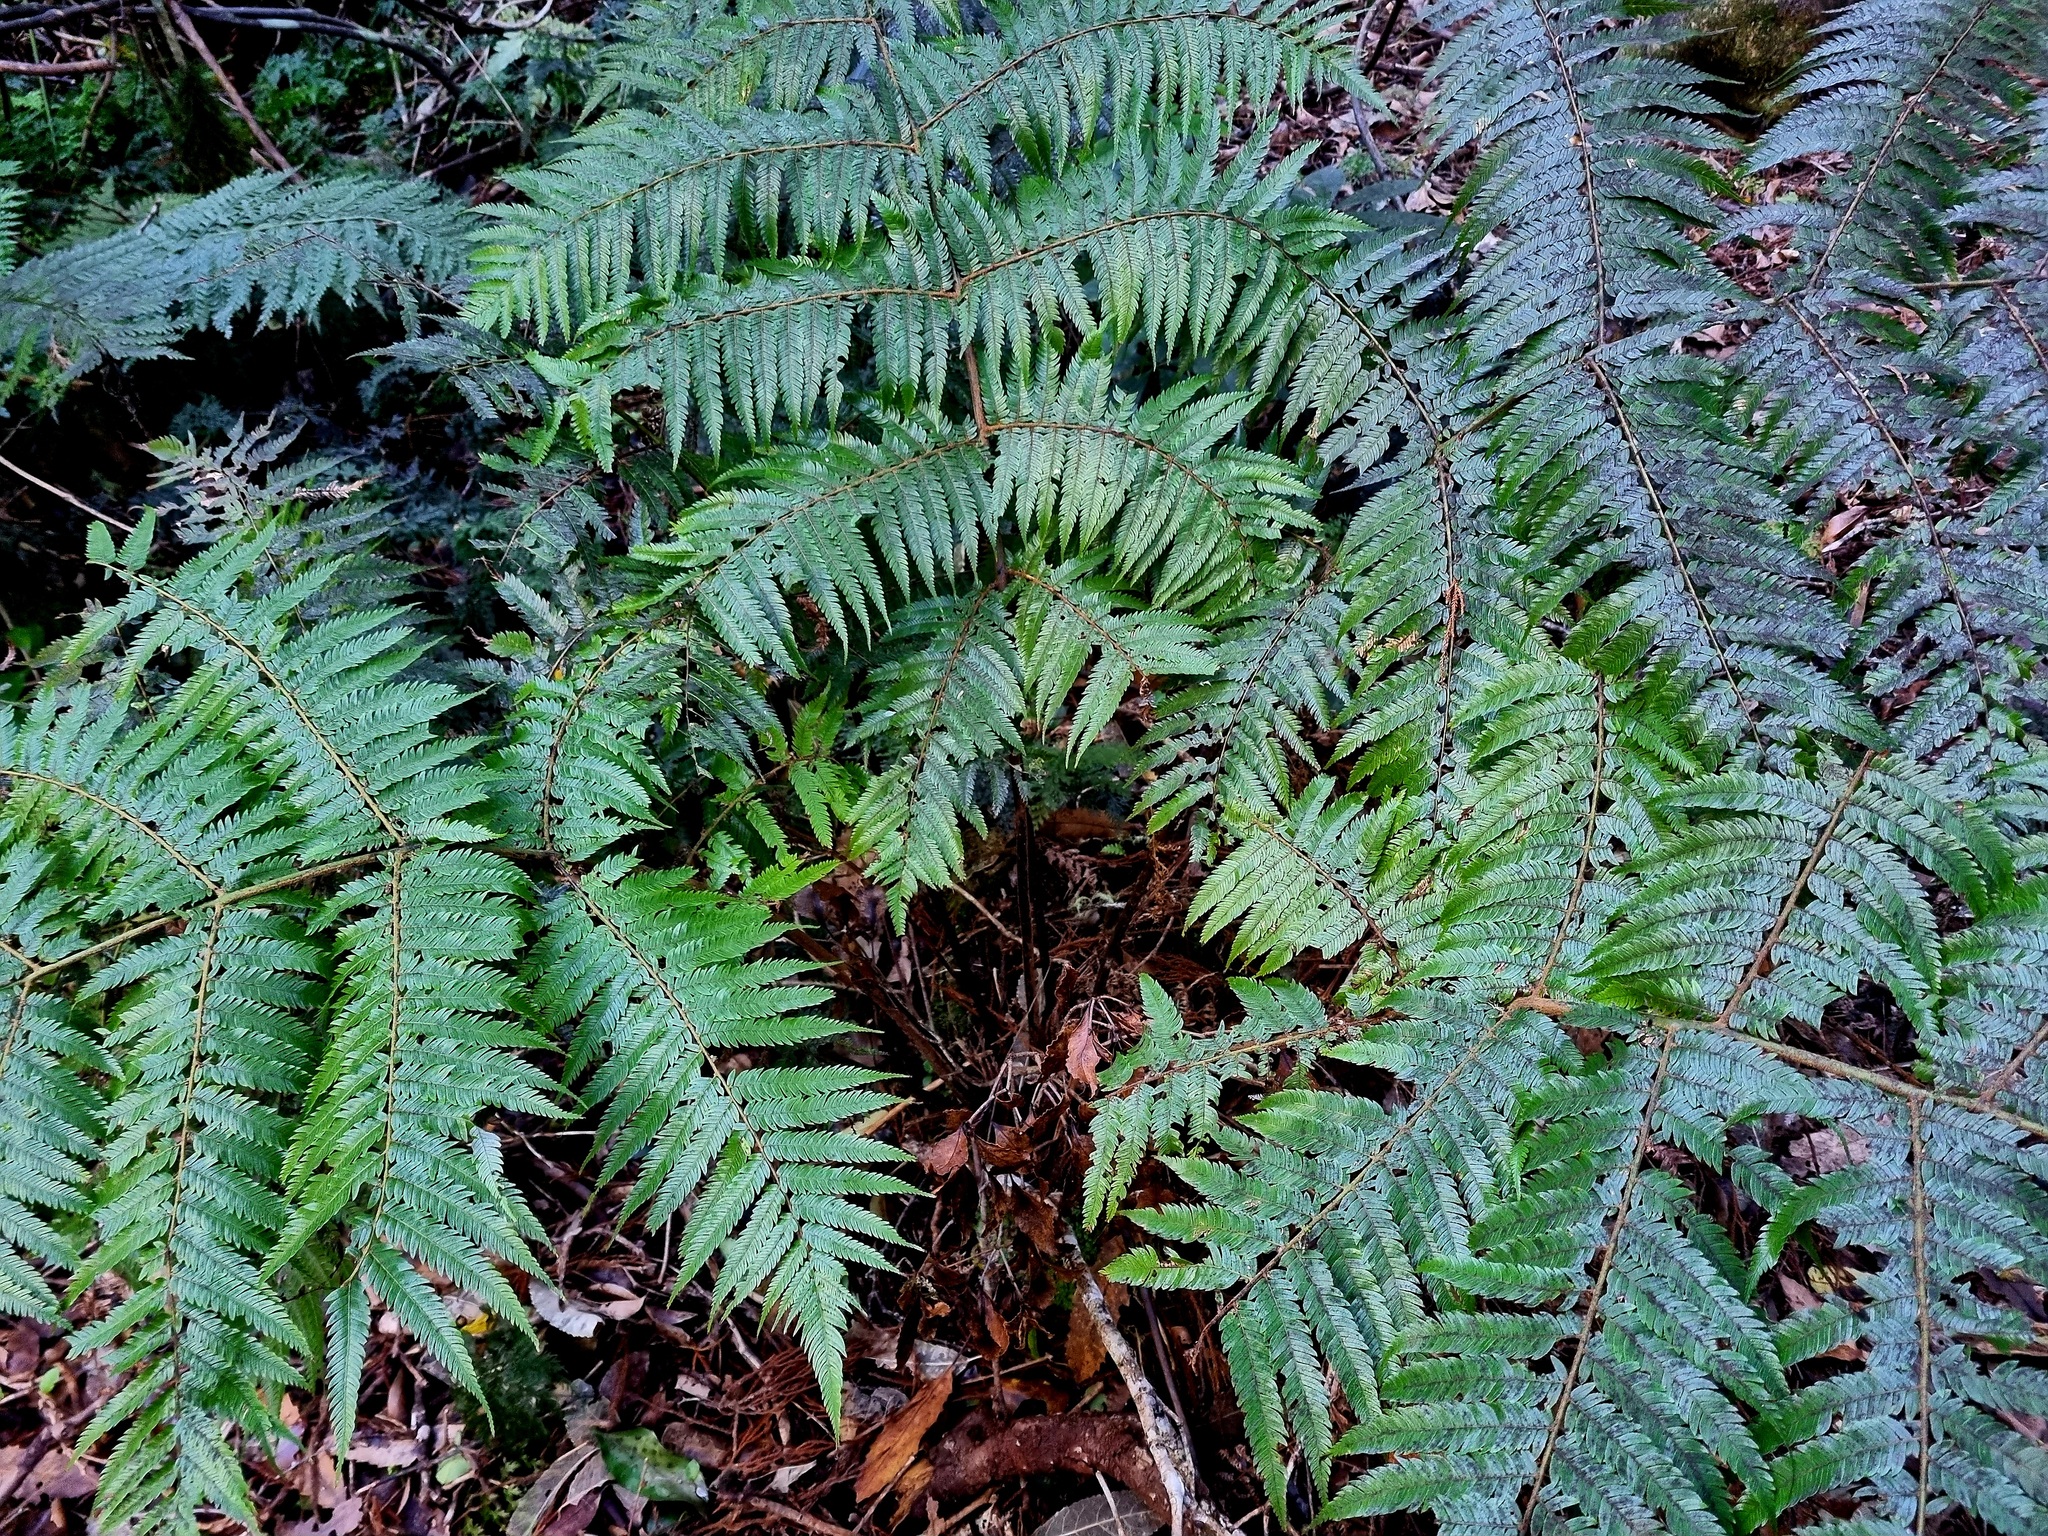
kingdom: Plantae
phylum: Tracheophyta
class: Polypodiopsida
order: Cyatheales
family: Cyatheaceae
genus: Alsophila
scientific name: Alsophila dealbata
